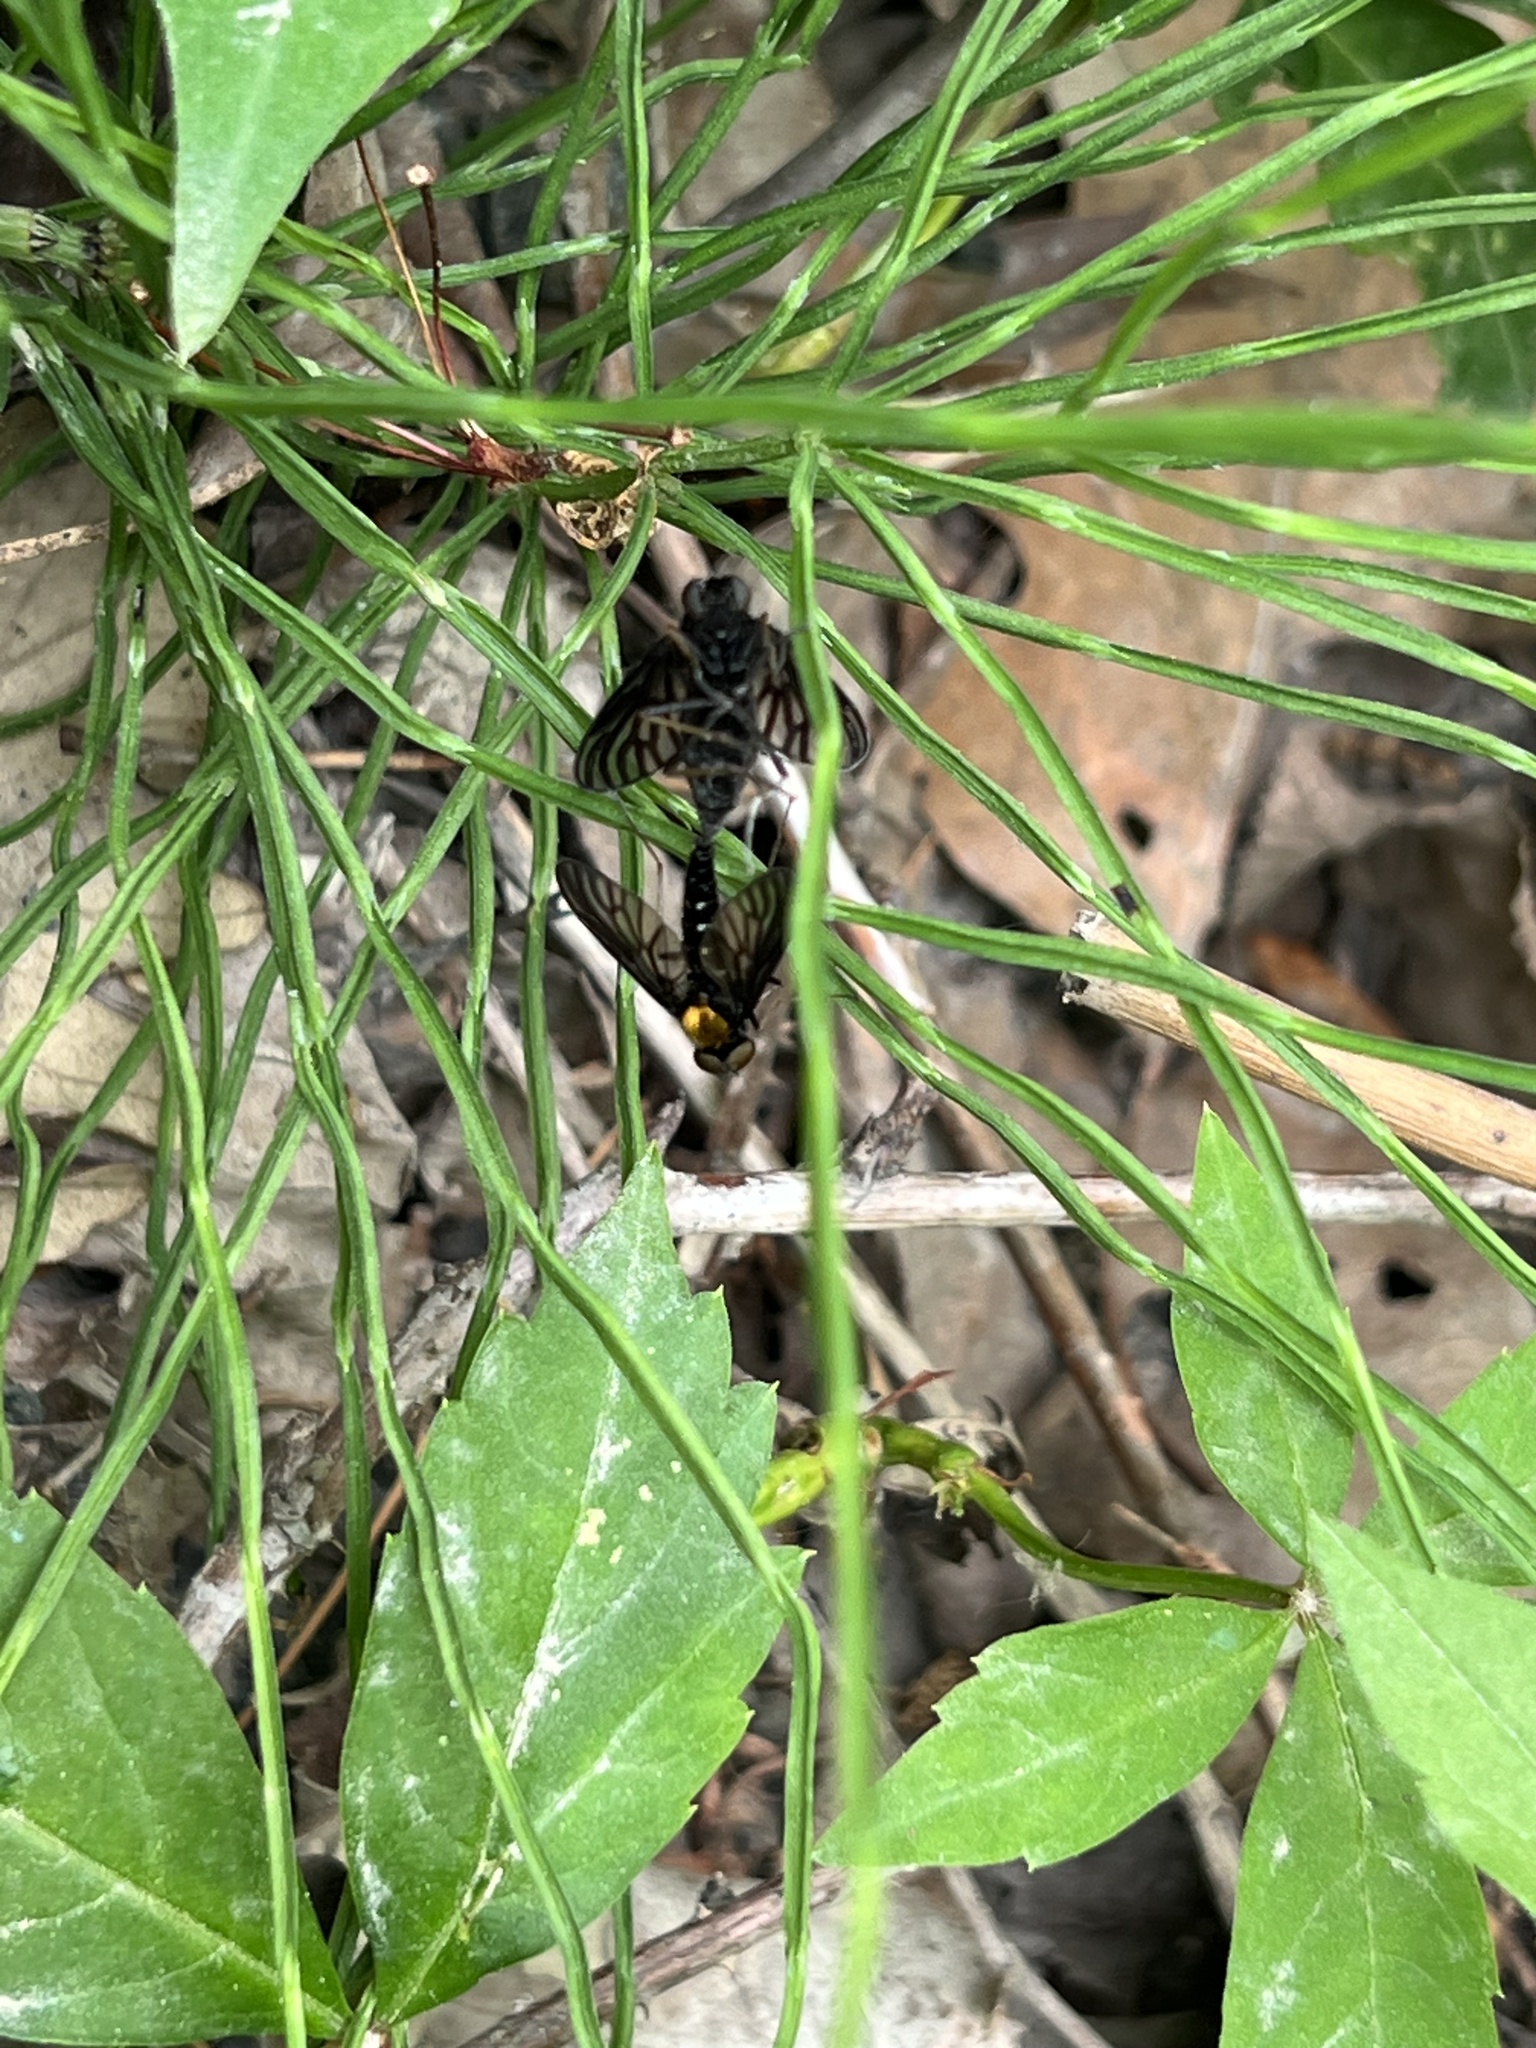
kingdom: Animalia
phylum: Arthropoda
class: Insecta
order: Diptera
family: Rhagionidae
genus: Chrysopilus
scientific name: Chrysopilus thoracicus
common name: Golden-backed snipe fly
